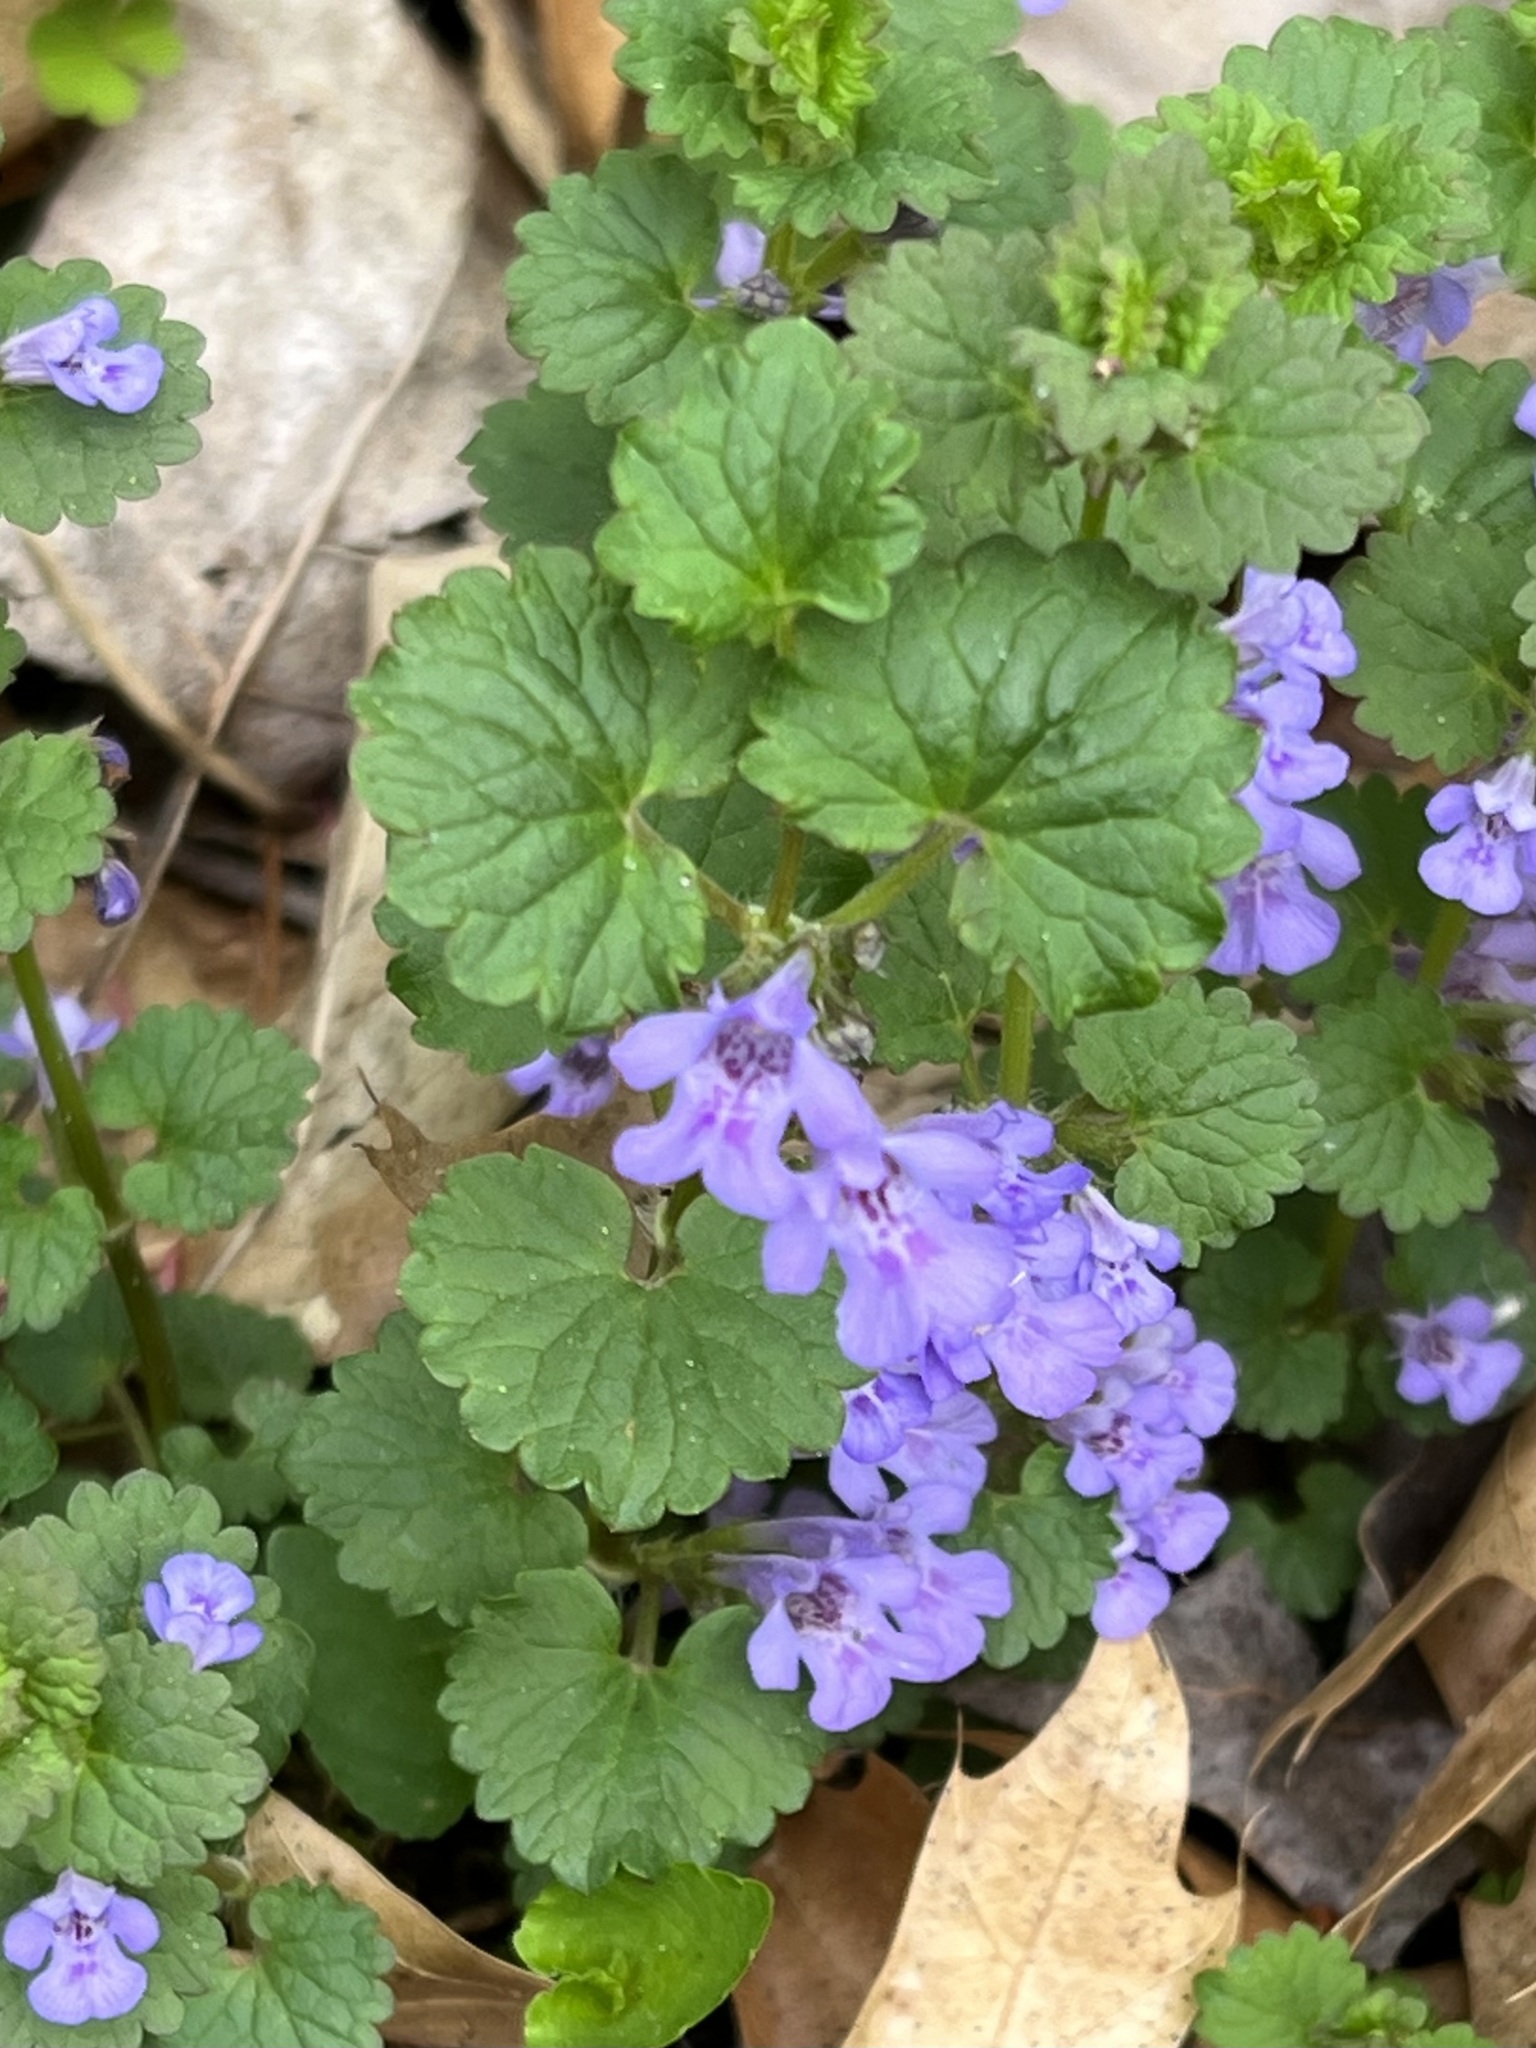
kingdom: Plantae
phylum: Tracheophyta
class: Magnoliopsida
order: Lamiales
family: Lamiaceae
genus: Glechoma
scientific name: Glechoma hederacea
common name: Ground ivy
